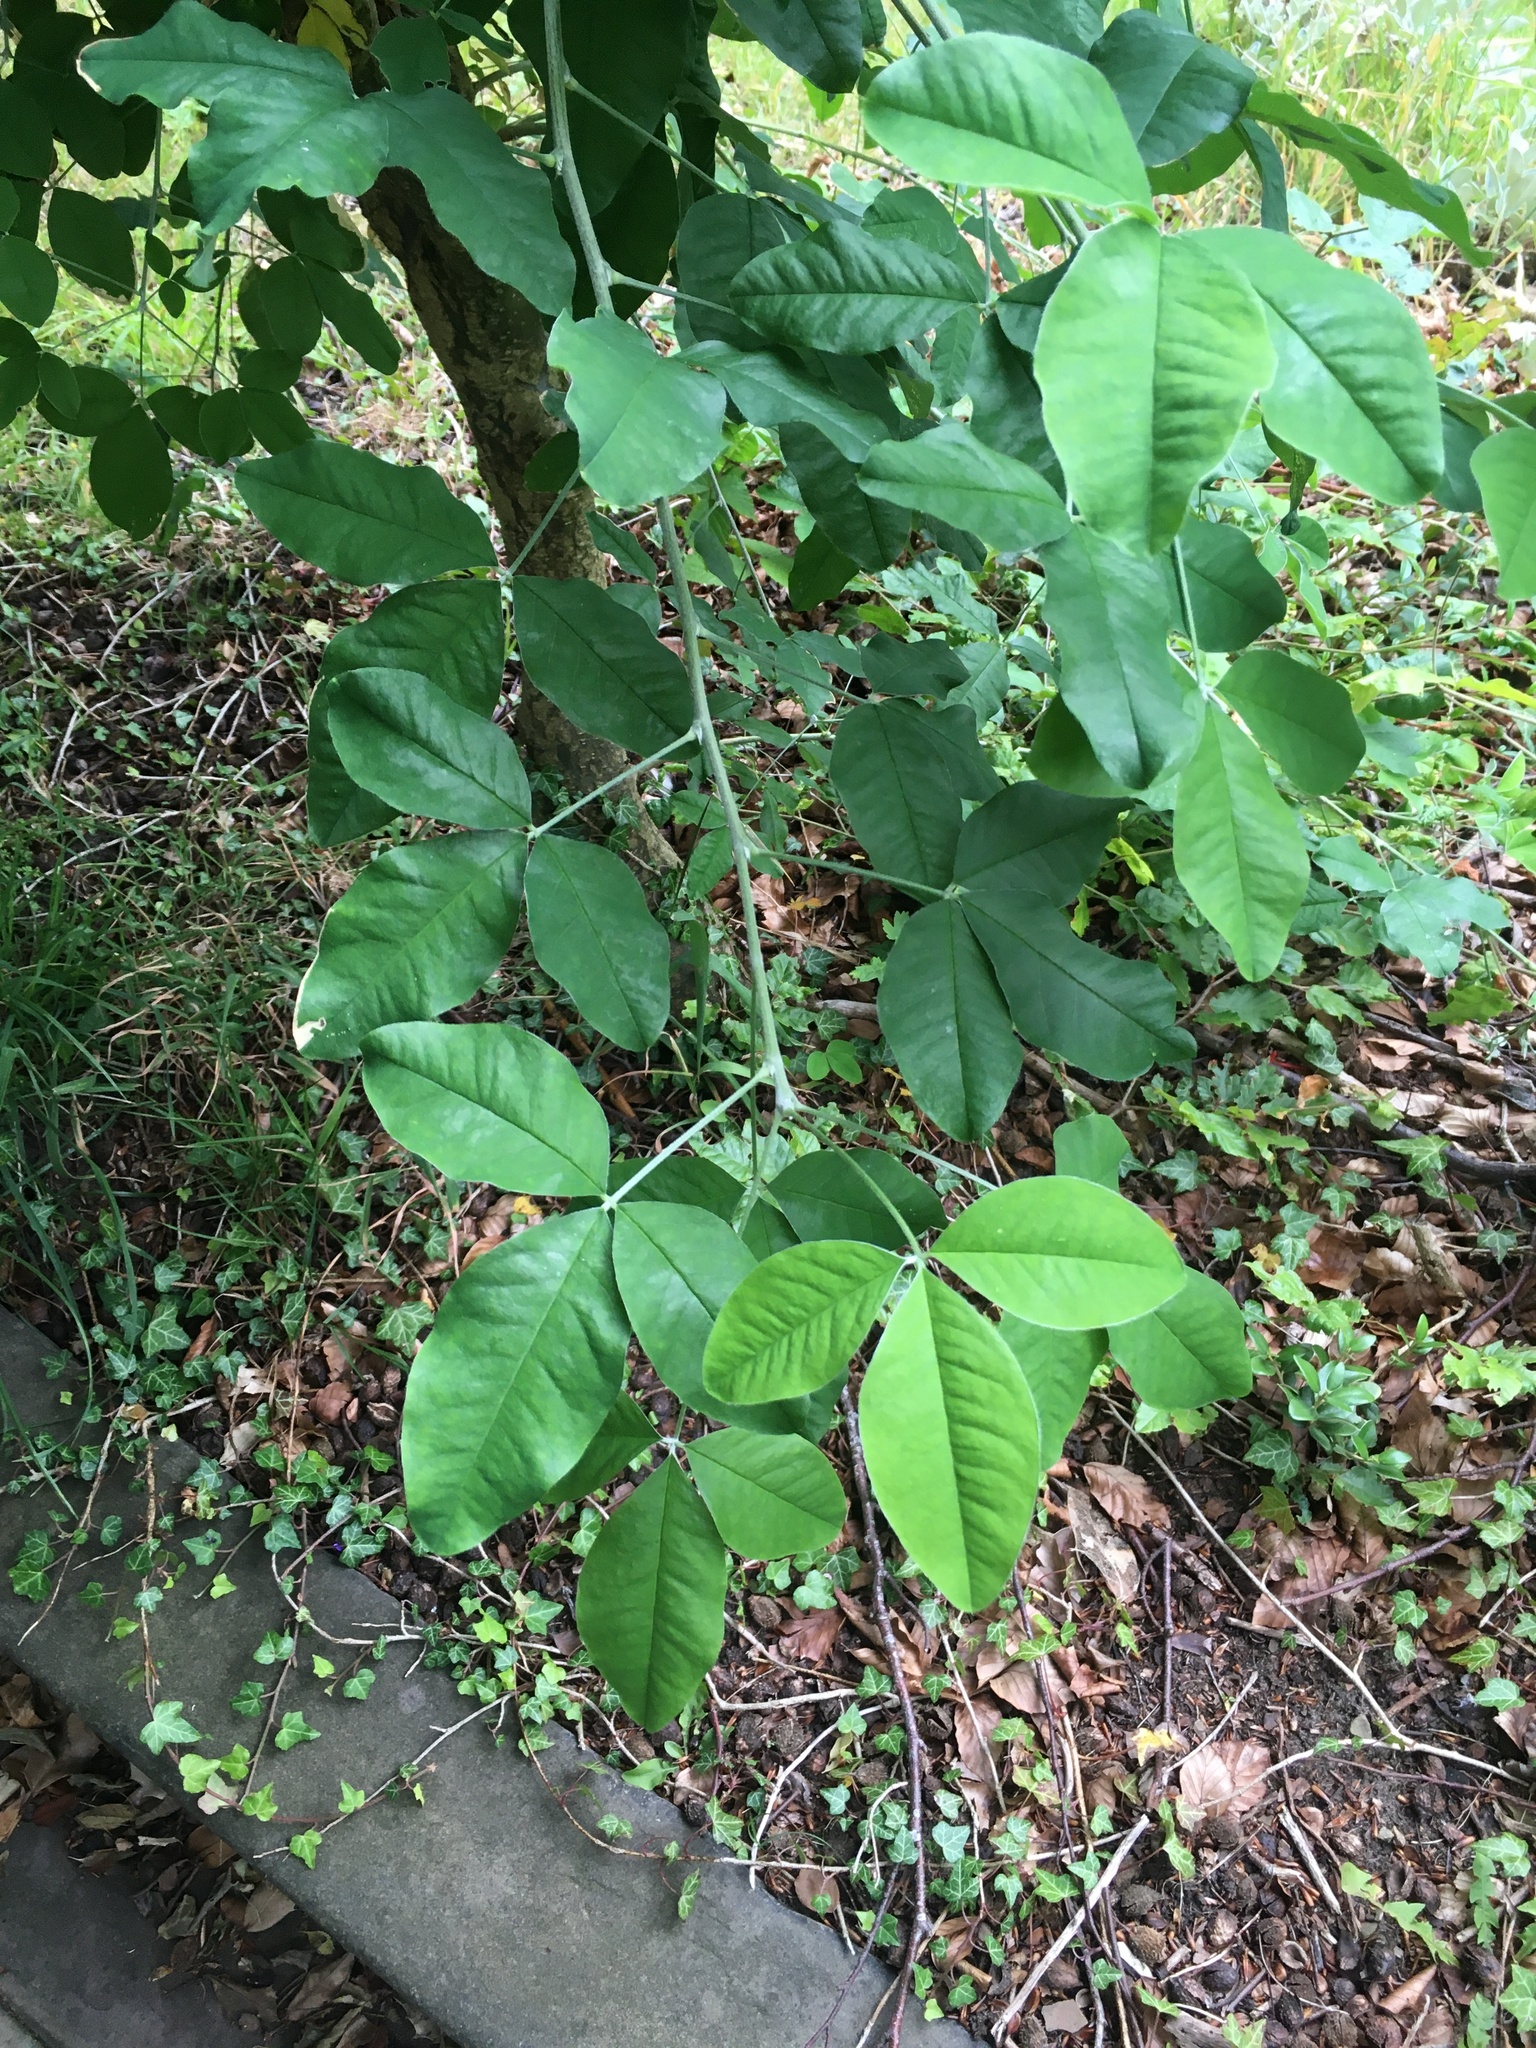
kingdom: Plantae
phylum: Tracheophyta
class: Magnoliopsida
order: Fabales
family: Fabaceae
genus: Laburnum
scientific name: Laburnum anagyroides
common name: Laburnum
